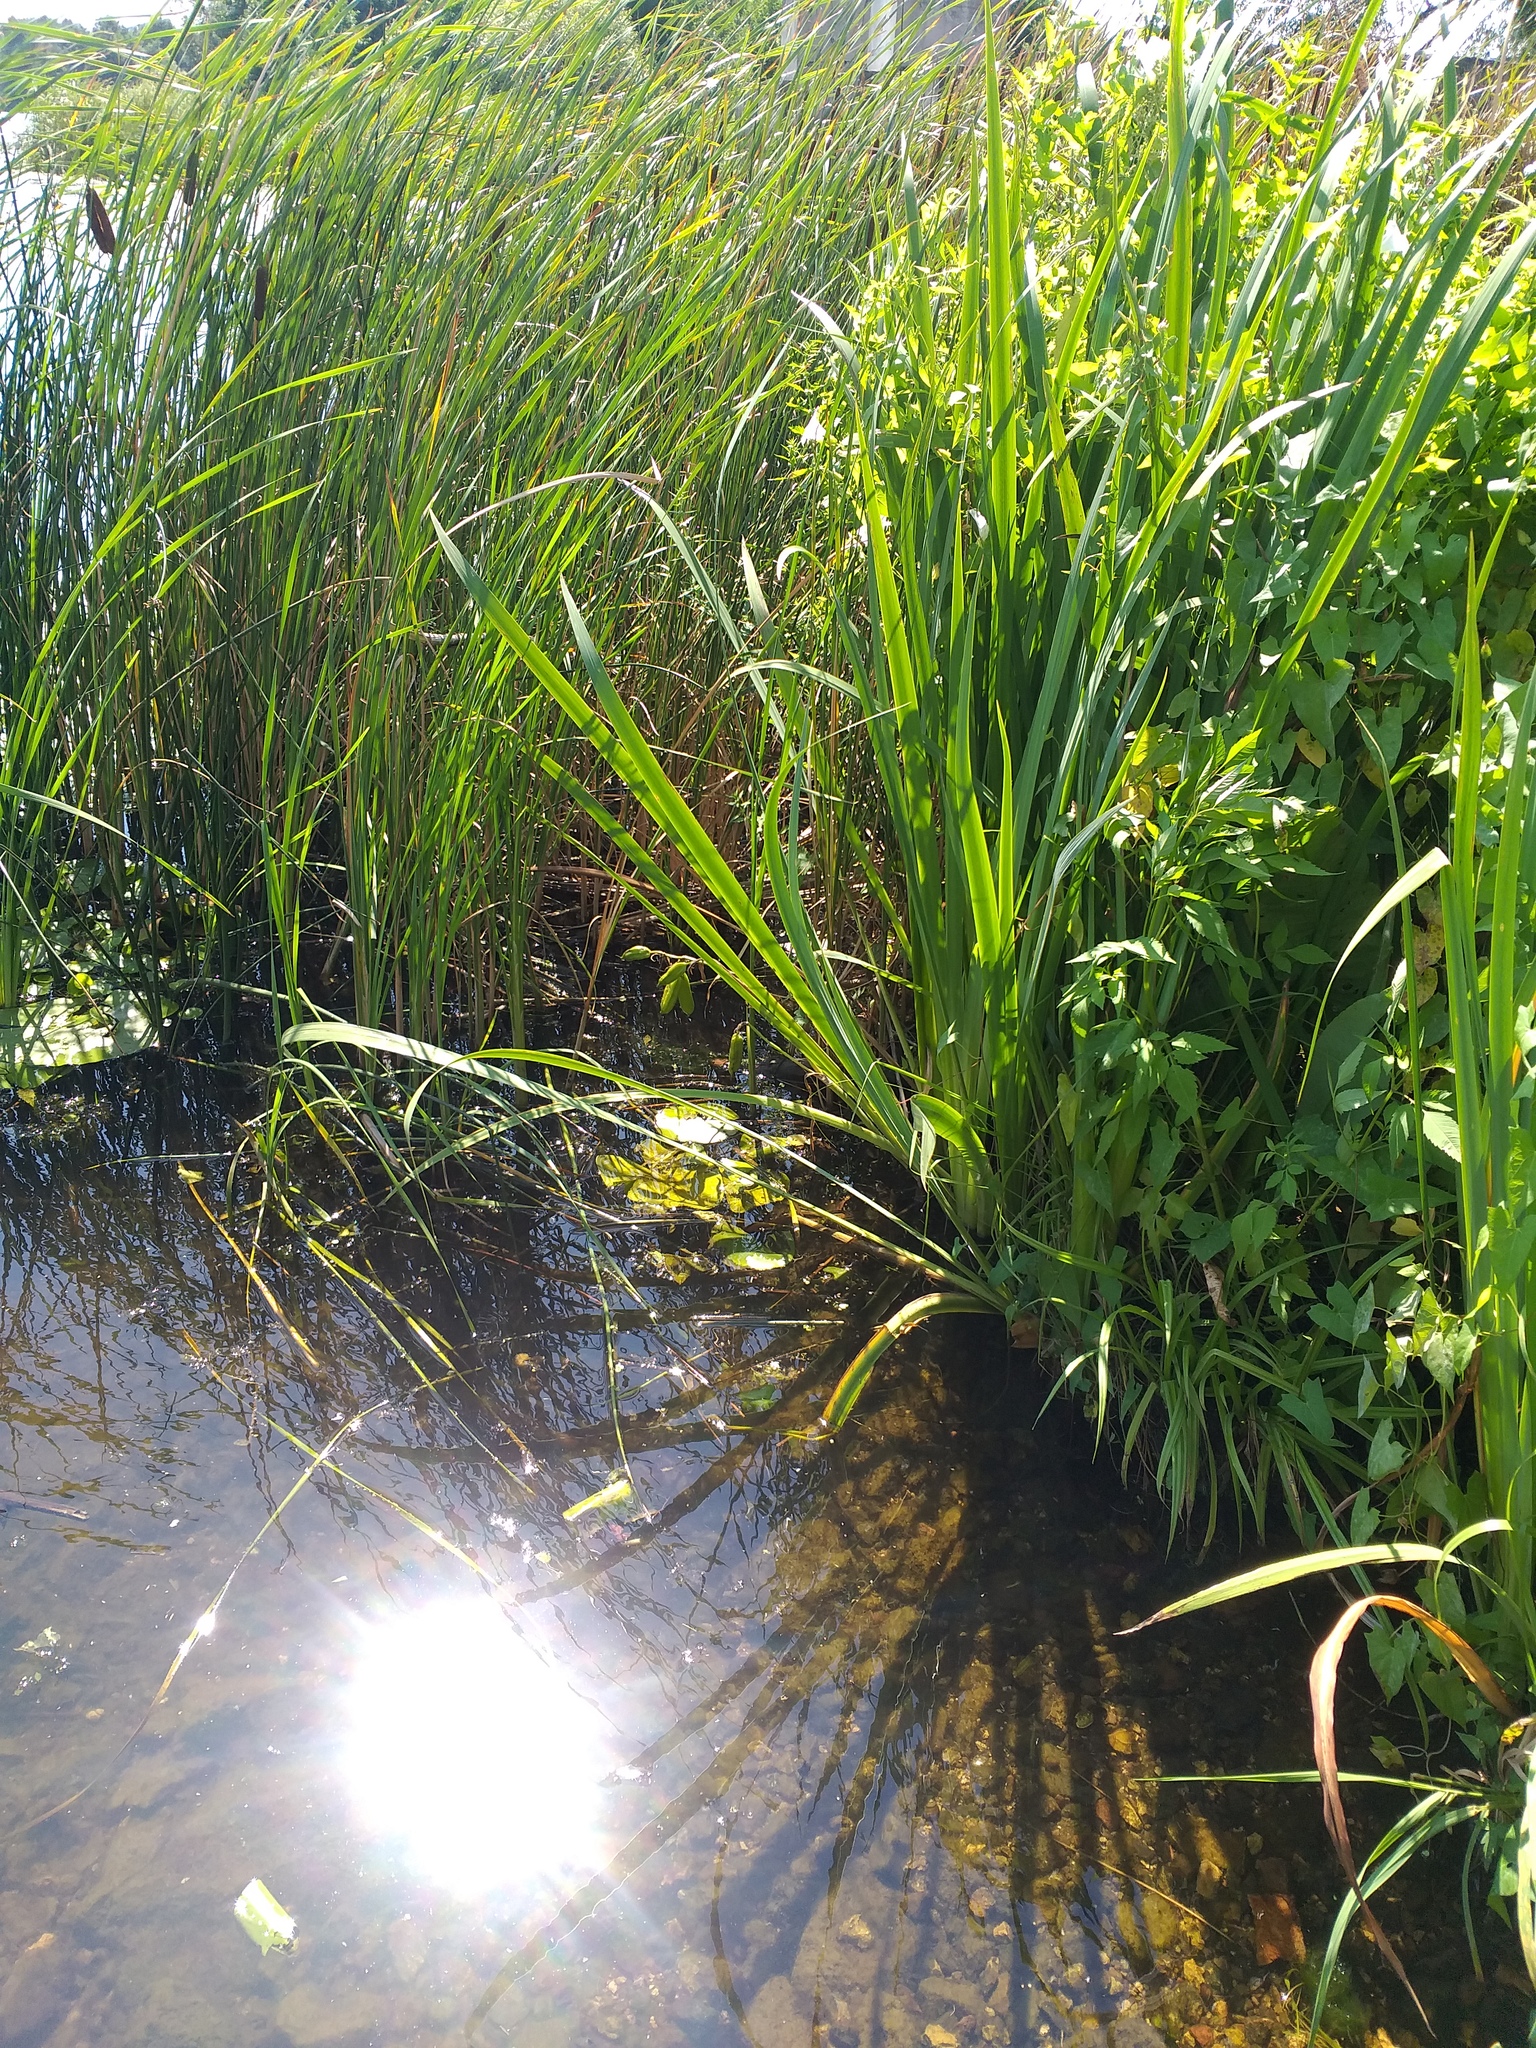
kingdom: Plantae
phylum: Tracheophyta
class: Liliopsida
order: Asparagales
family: Iridaceae
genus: Iris
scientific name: Iris pseudacorus
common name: Yellow flag
